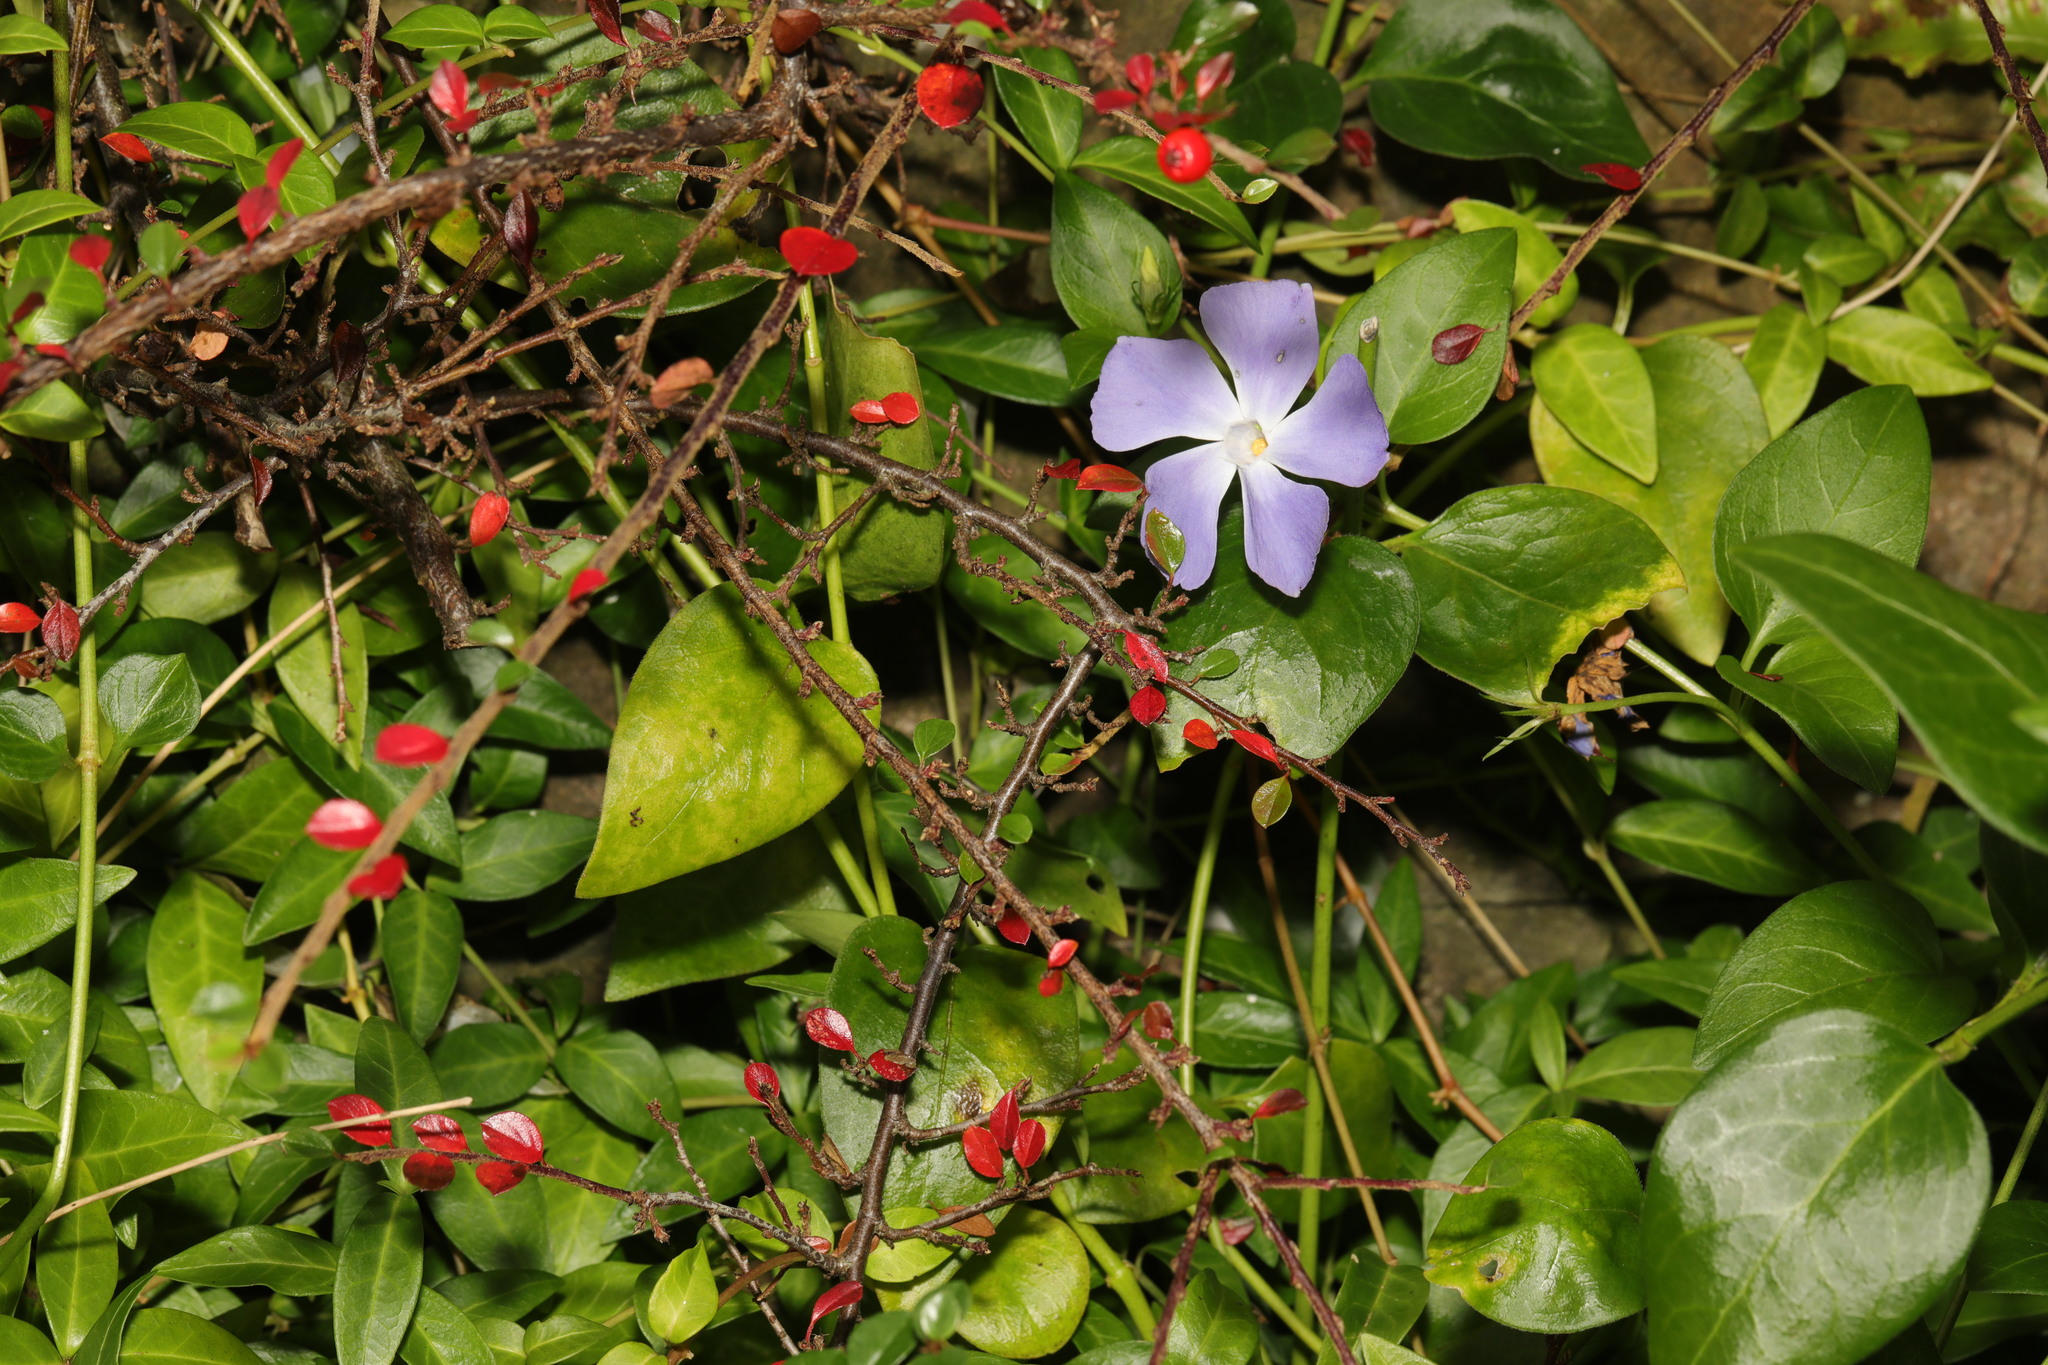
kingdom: Plantae
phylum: Tracheophyta
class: Magnoliopsida
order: Gentianales
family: Apocynaceae
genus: Vinca
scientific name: Vinca major
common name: Greater periwinkle
